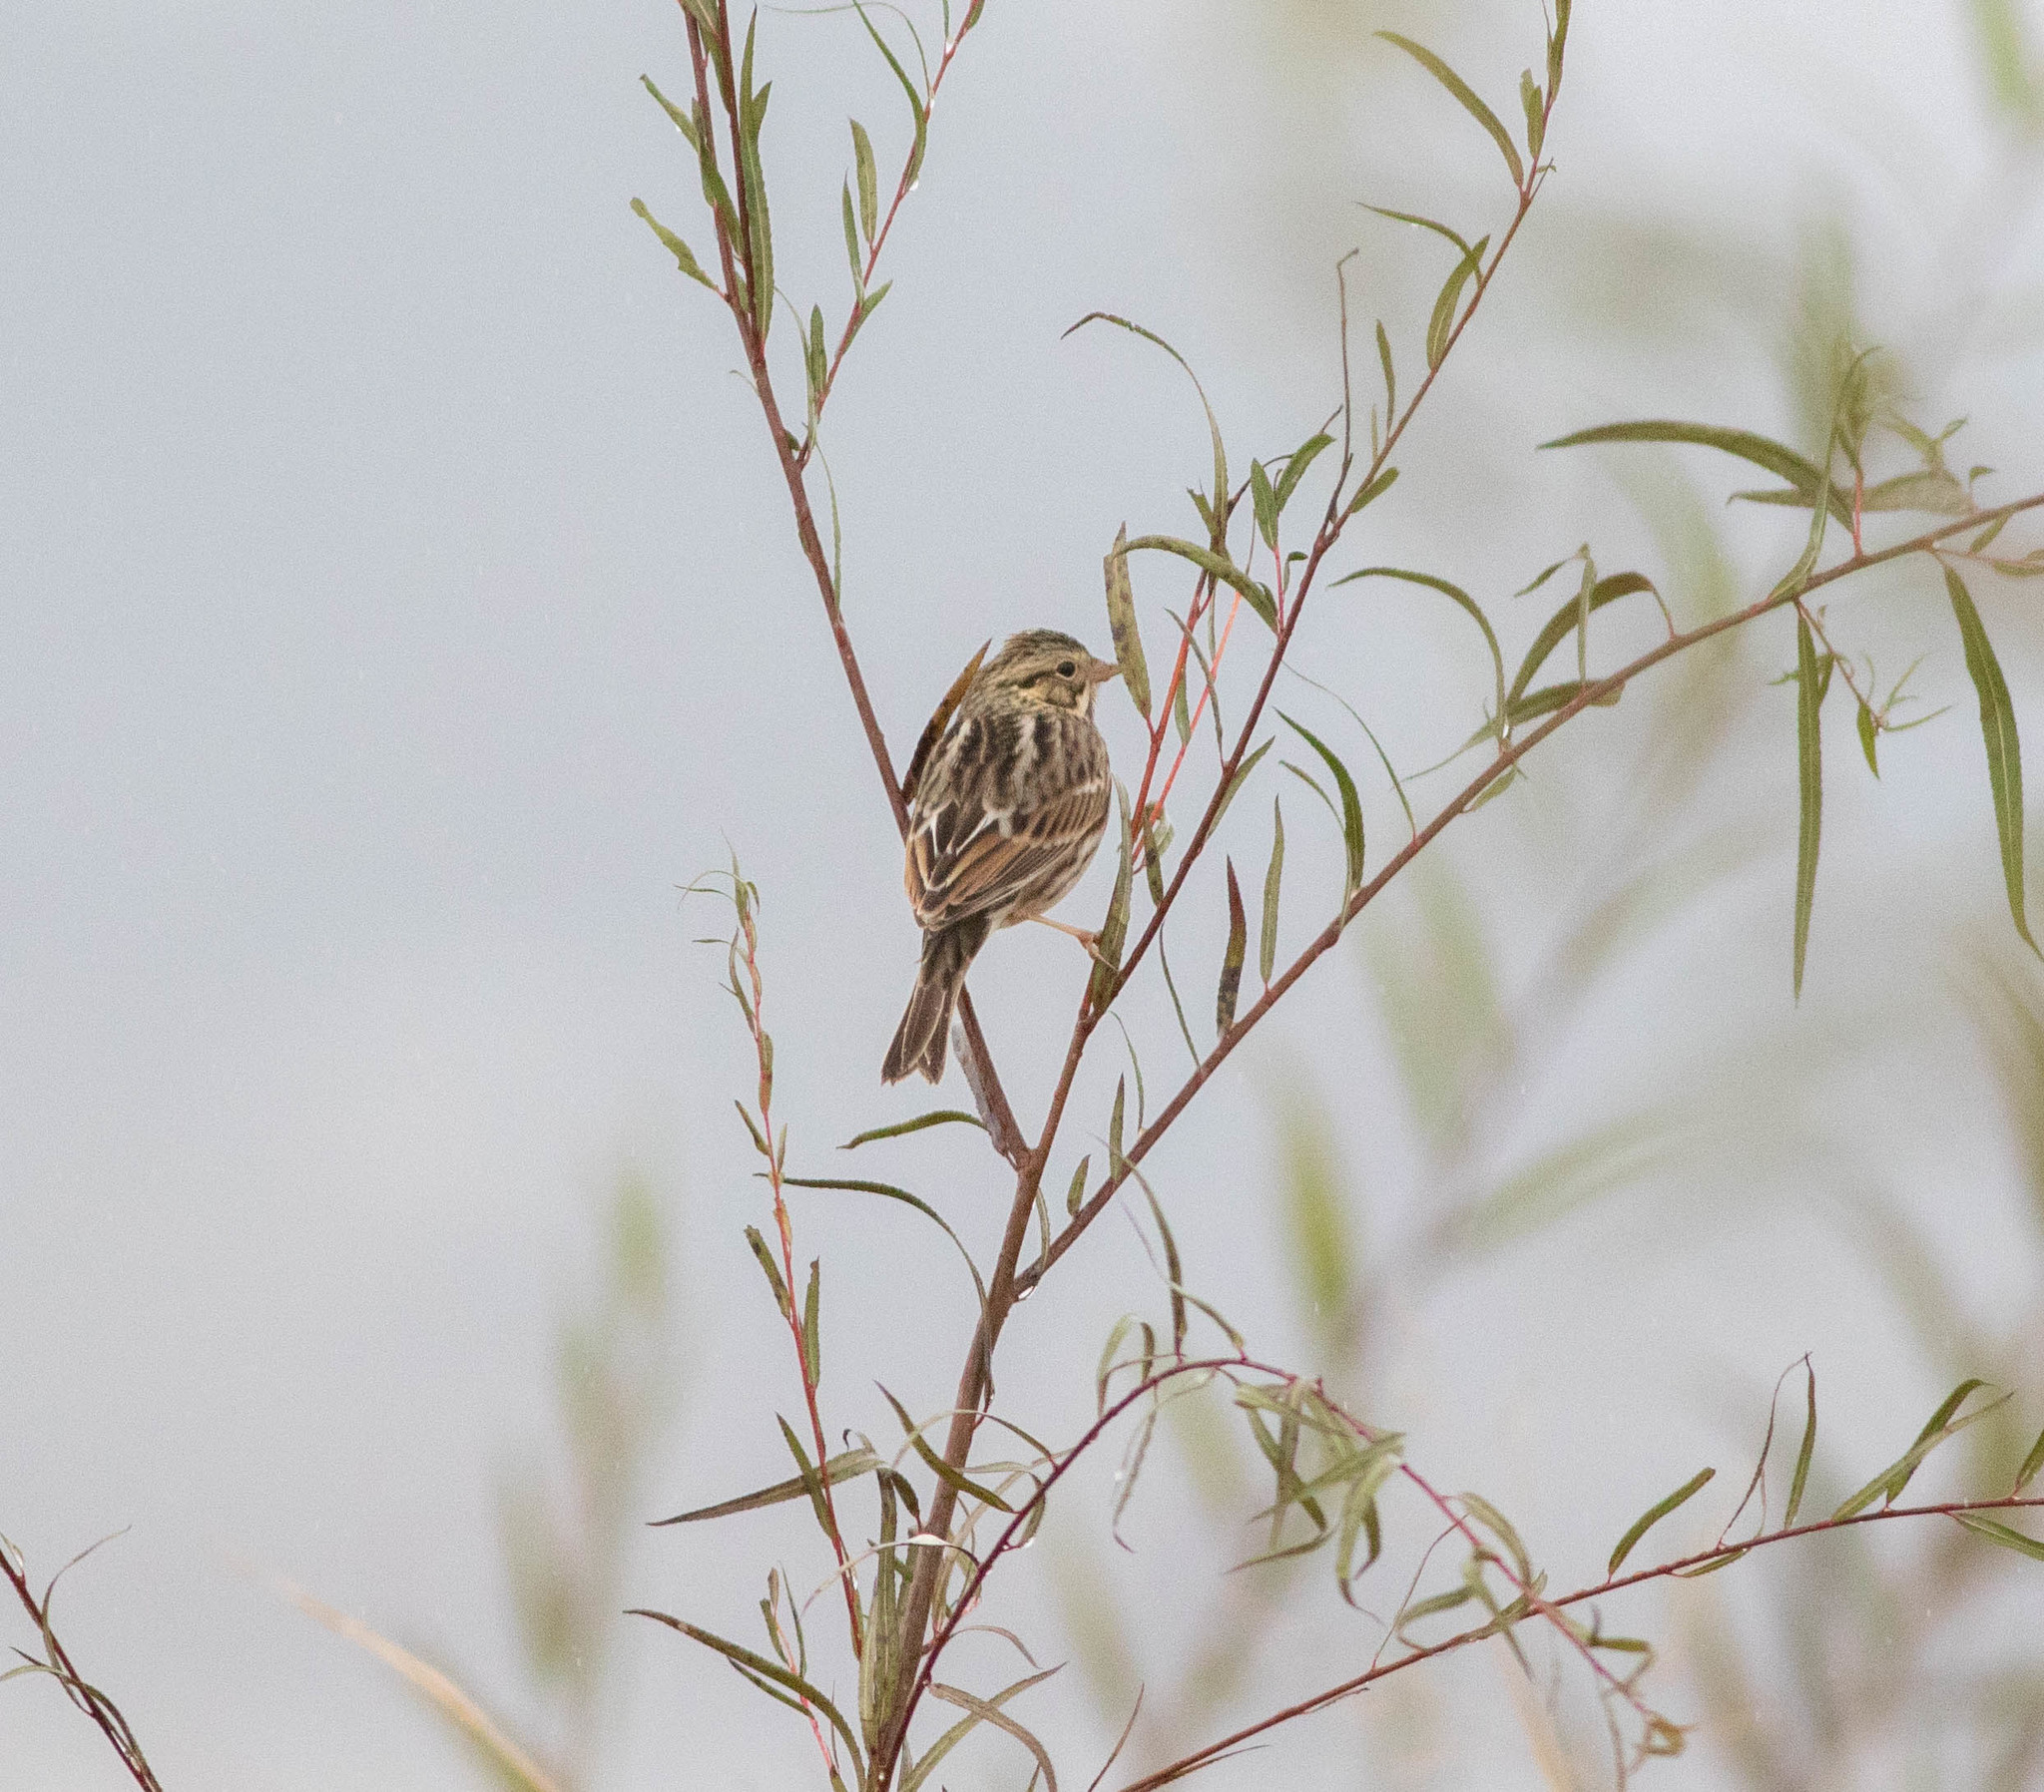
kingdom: Animalia
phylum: Chordata
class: Aves
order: Passeriformes
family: Passerellidae
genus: Passerculus
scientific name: Passerculus sandwichensis
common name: Savannah sparrow
